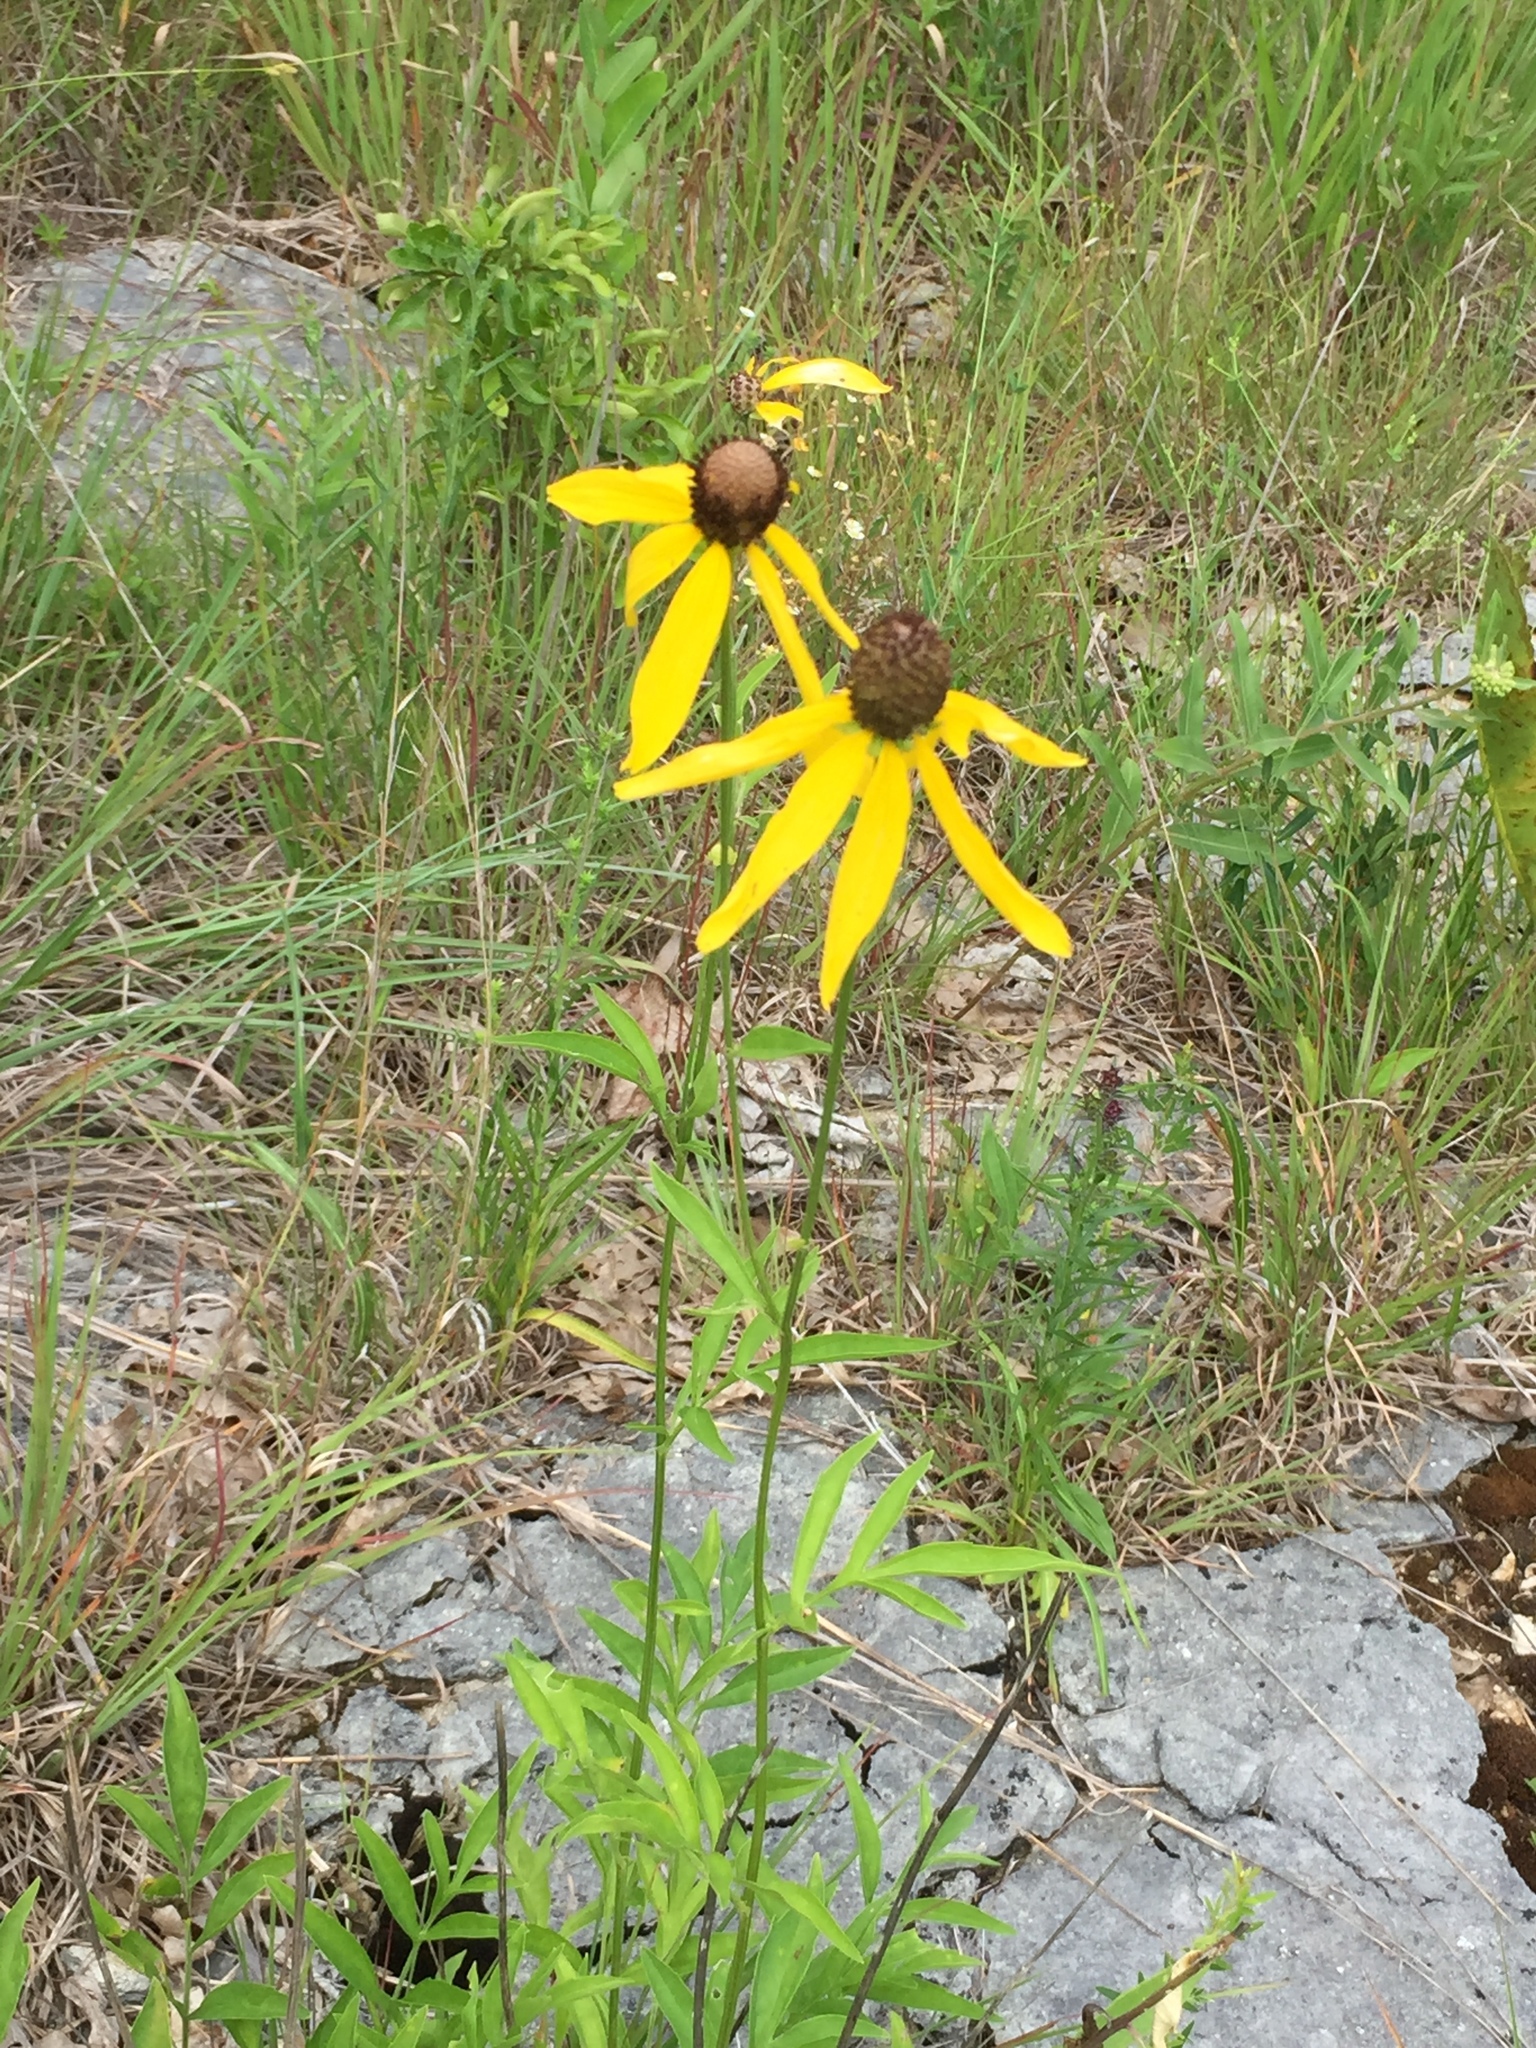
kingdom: Plantae
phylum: Tracheophyta
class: Magnoliopsida
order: Asterales
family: Asteraceae
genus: Ratibida
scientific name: Ratibida pinnata
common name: Drooping prairie-coneflower
